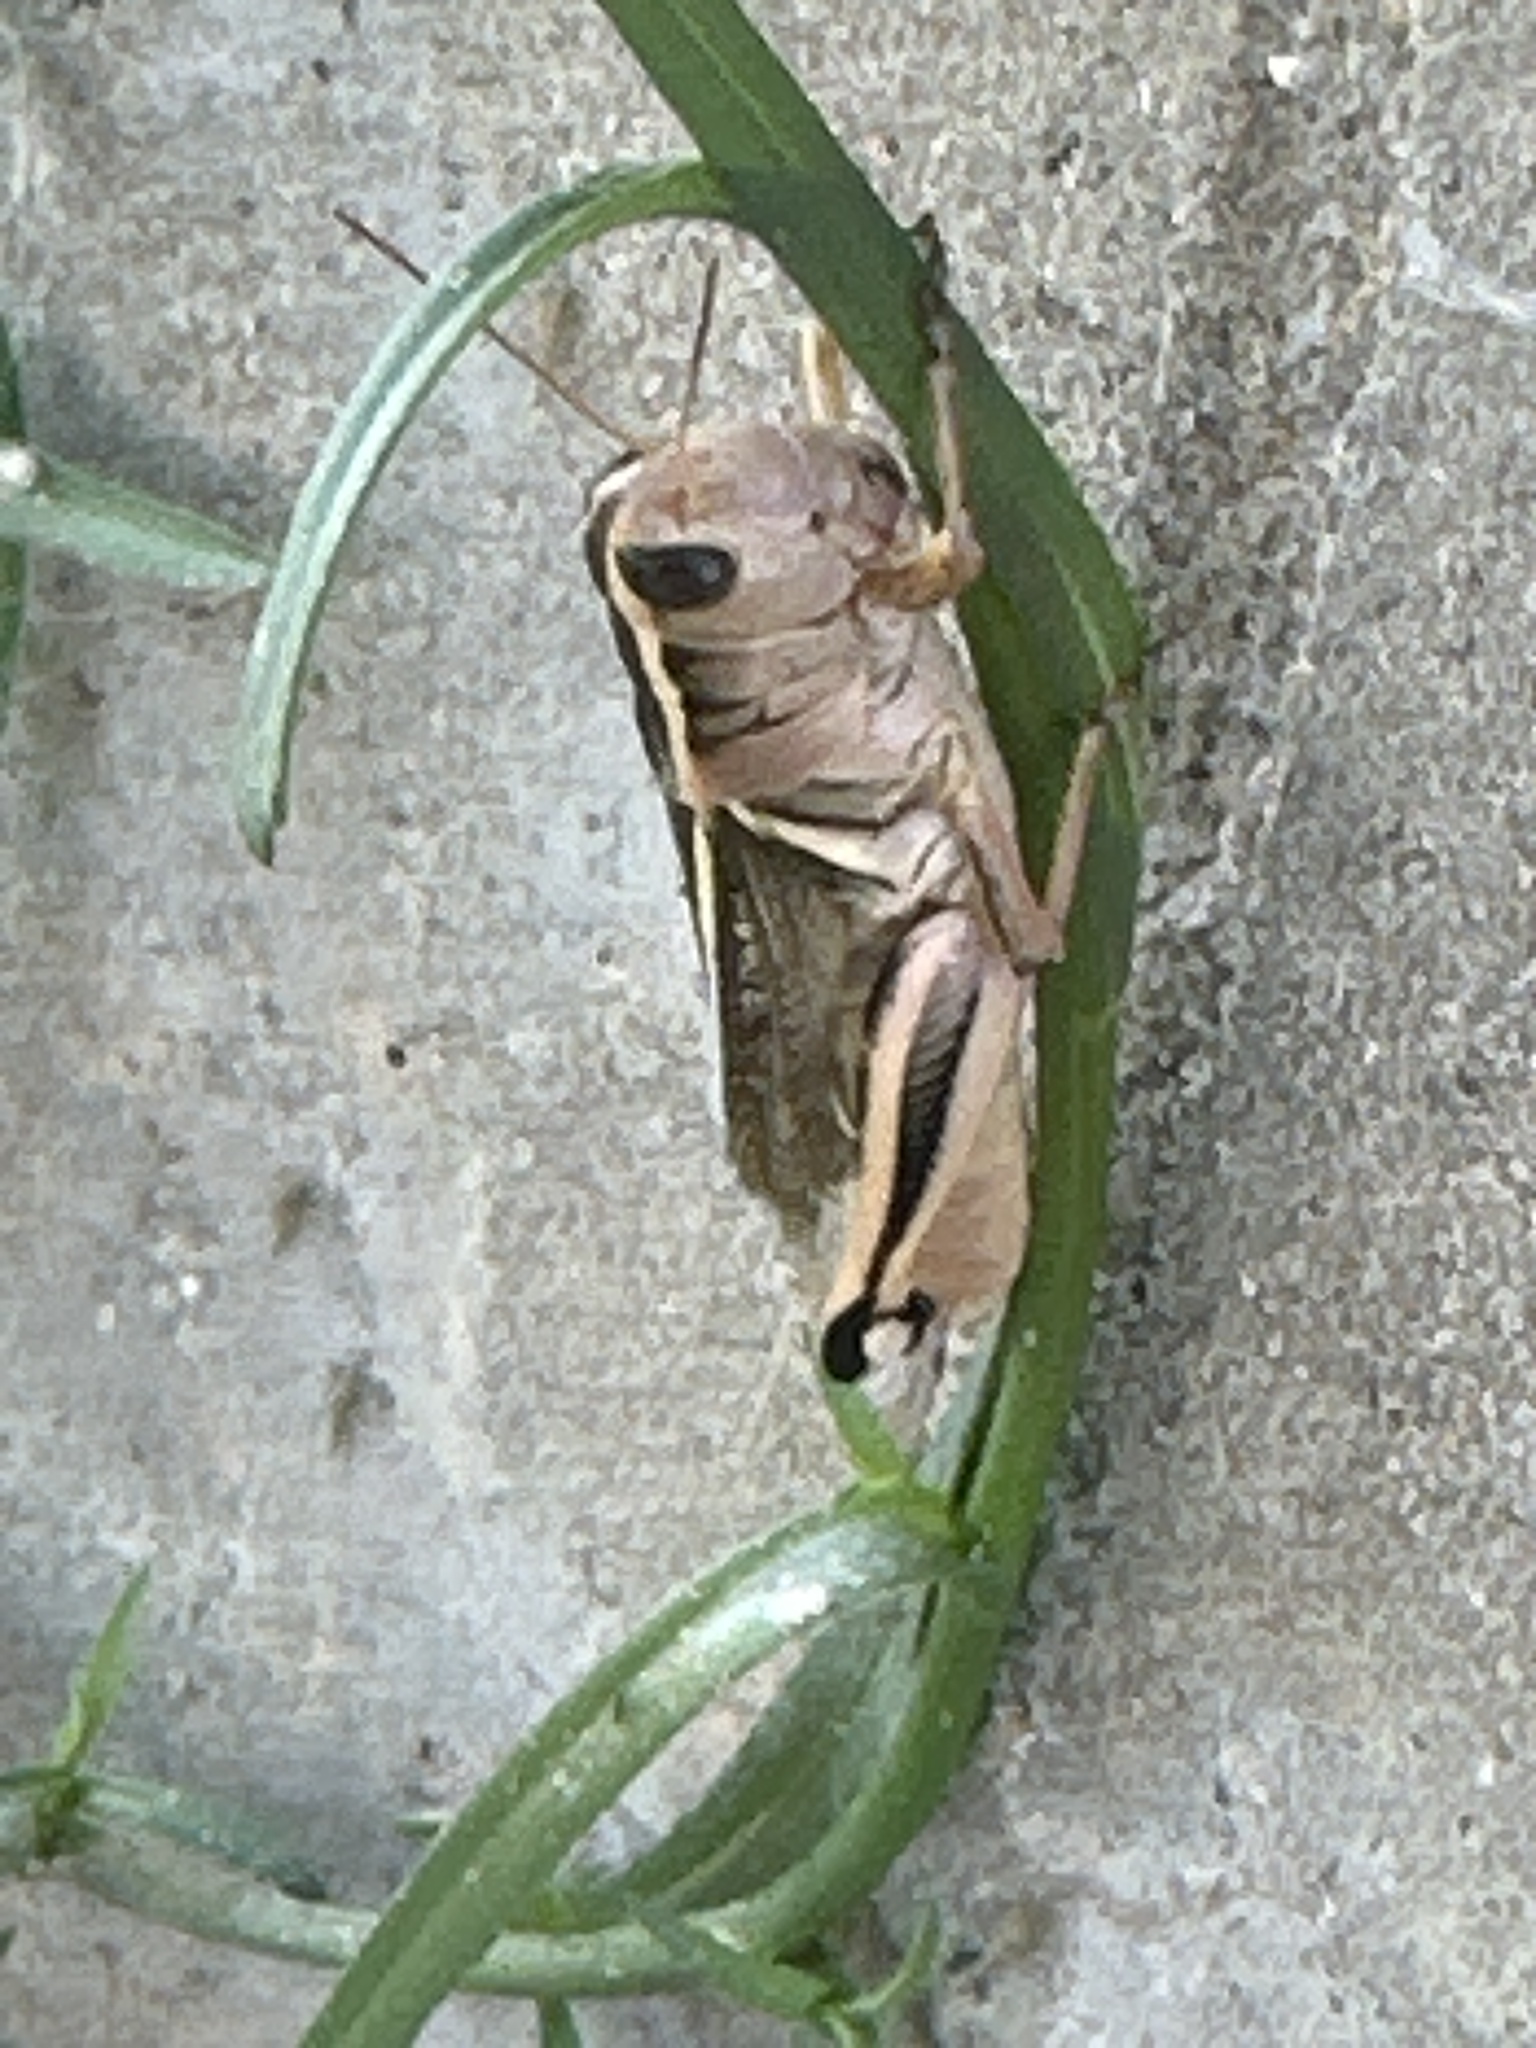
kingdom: Animalia
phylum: Arthropoda
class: Insecta
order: Orthoptera
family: Acrididae
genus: Melanoplus
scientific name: Melanoplus bivittatus
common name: Two-striped grasshopper
